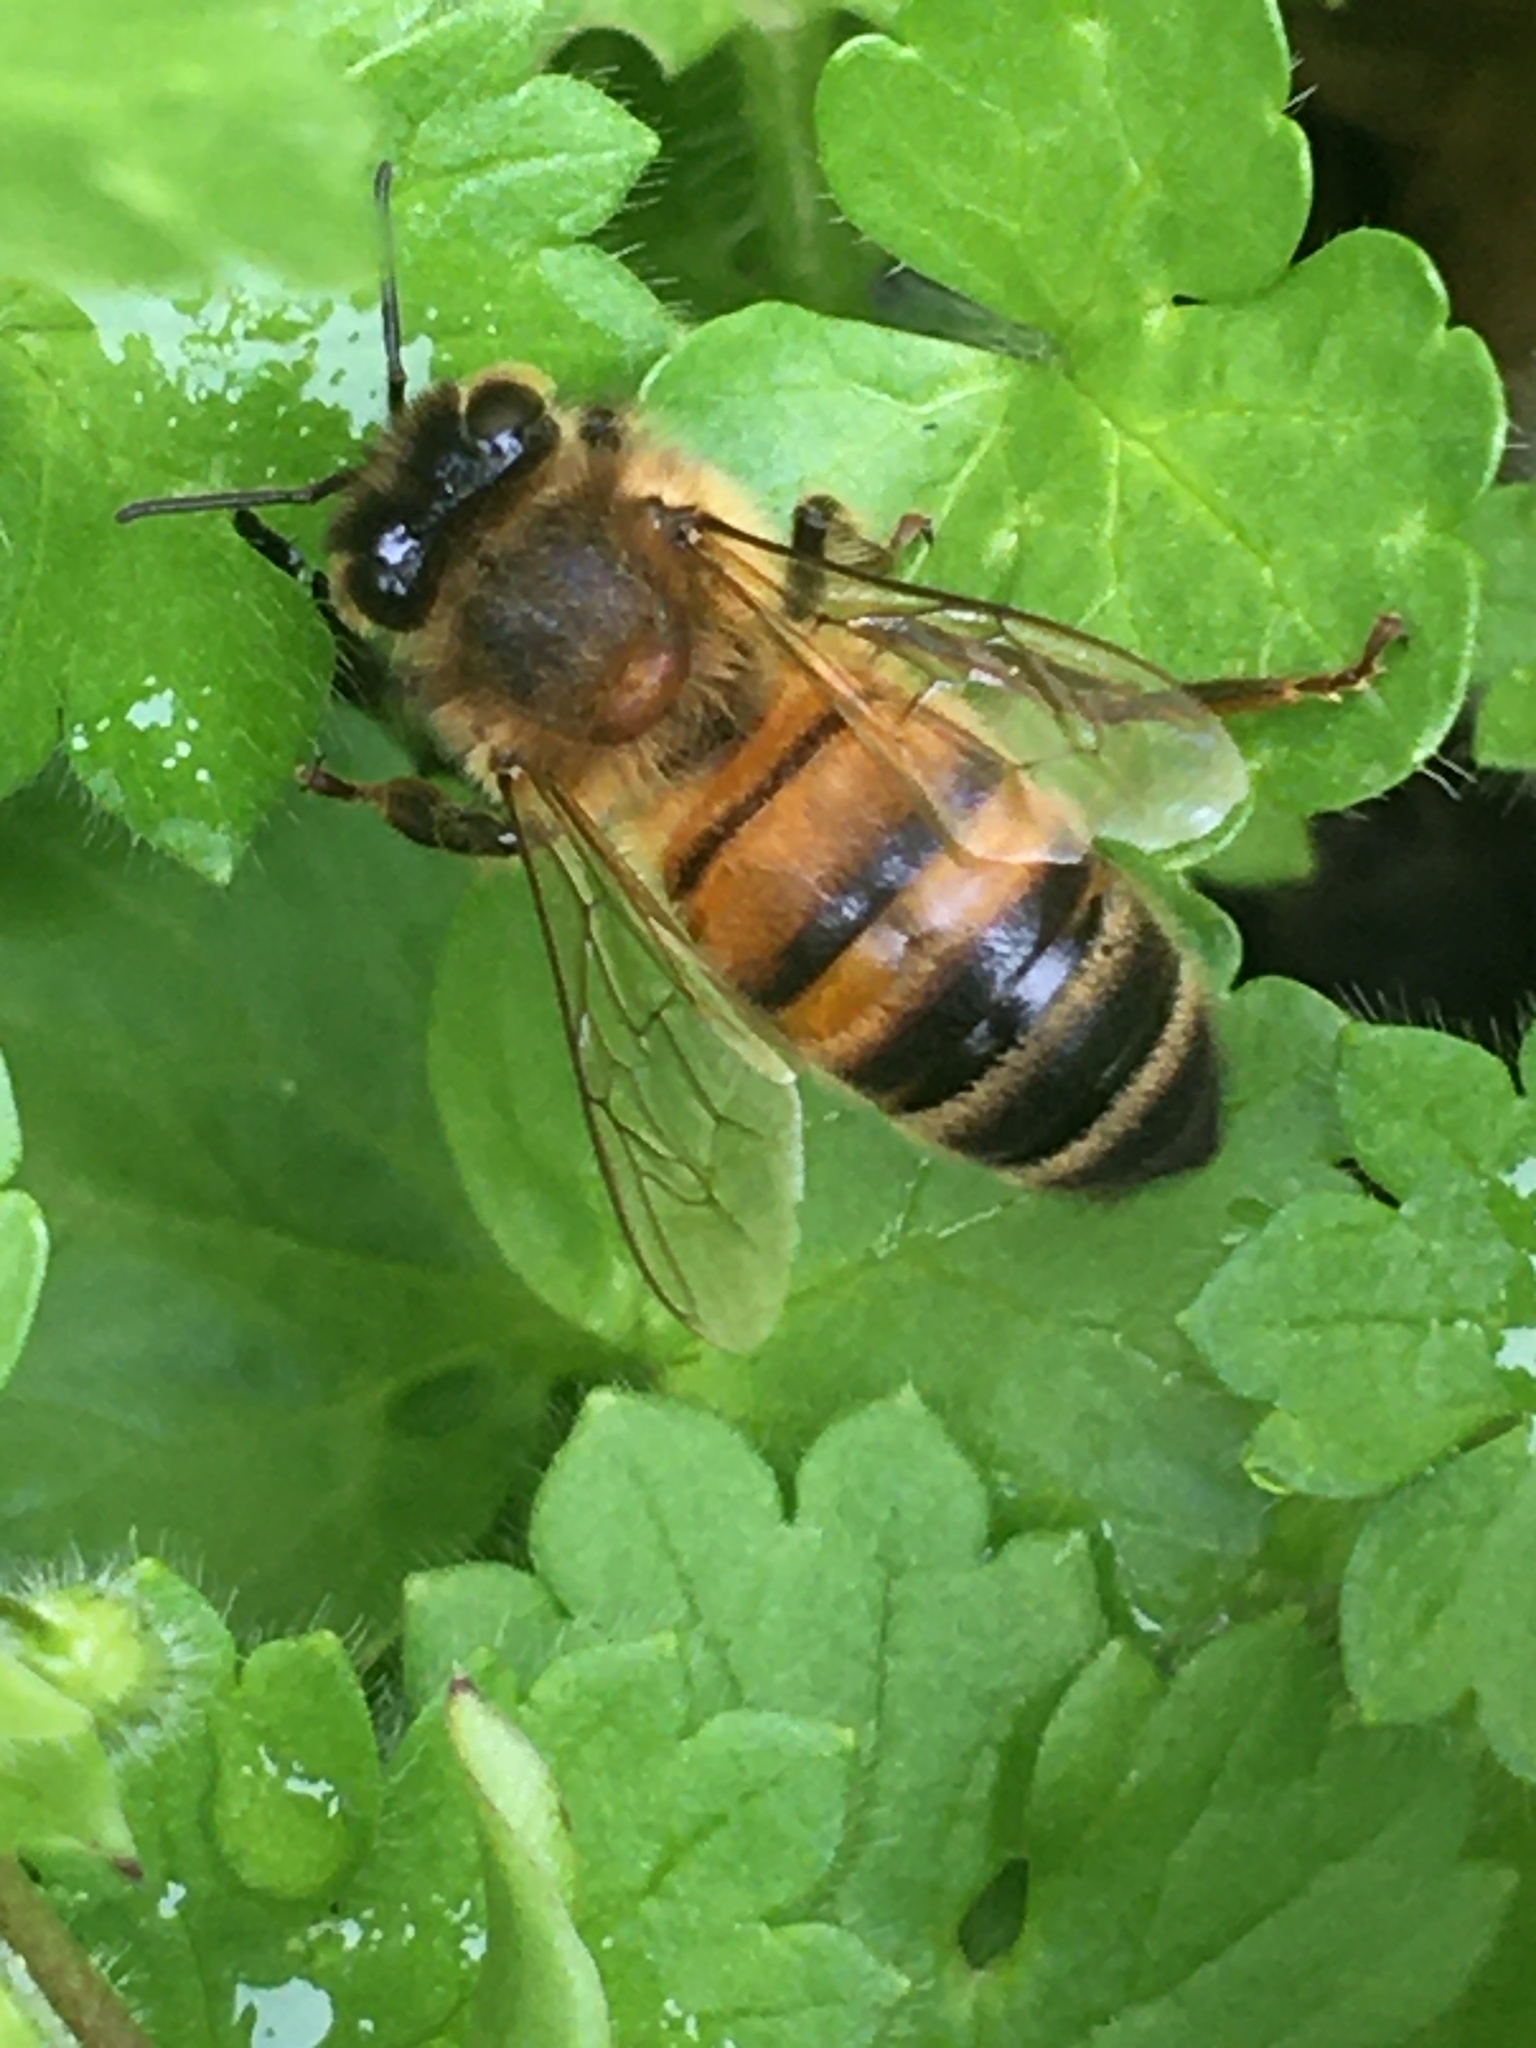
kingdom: Animalia
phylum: Arthropoda
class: Insecta
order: Hymenoptera
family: Apidae
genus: Apis
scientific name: Apis mellifera
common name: Honey bee
